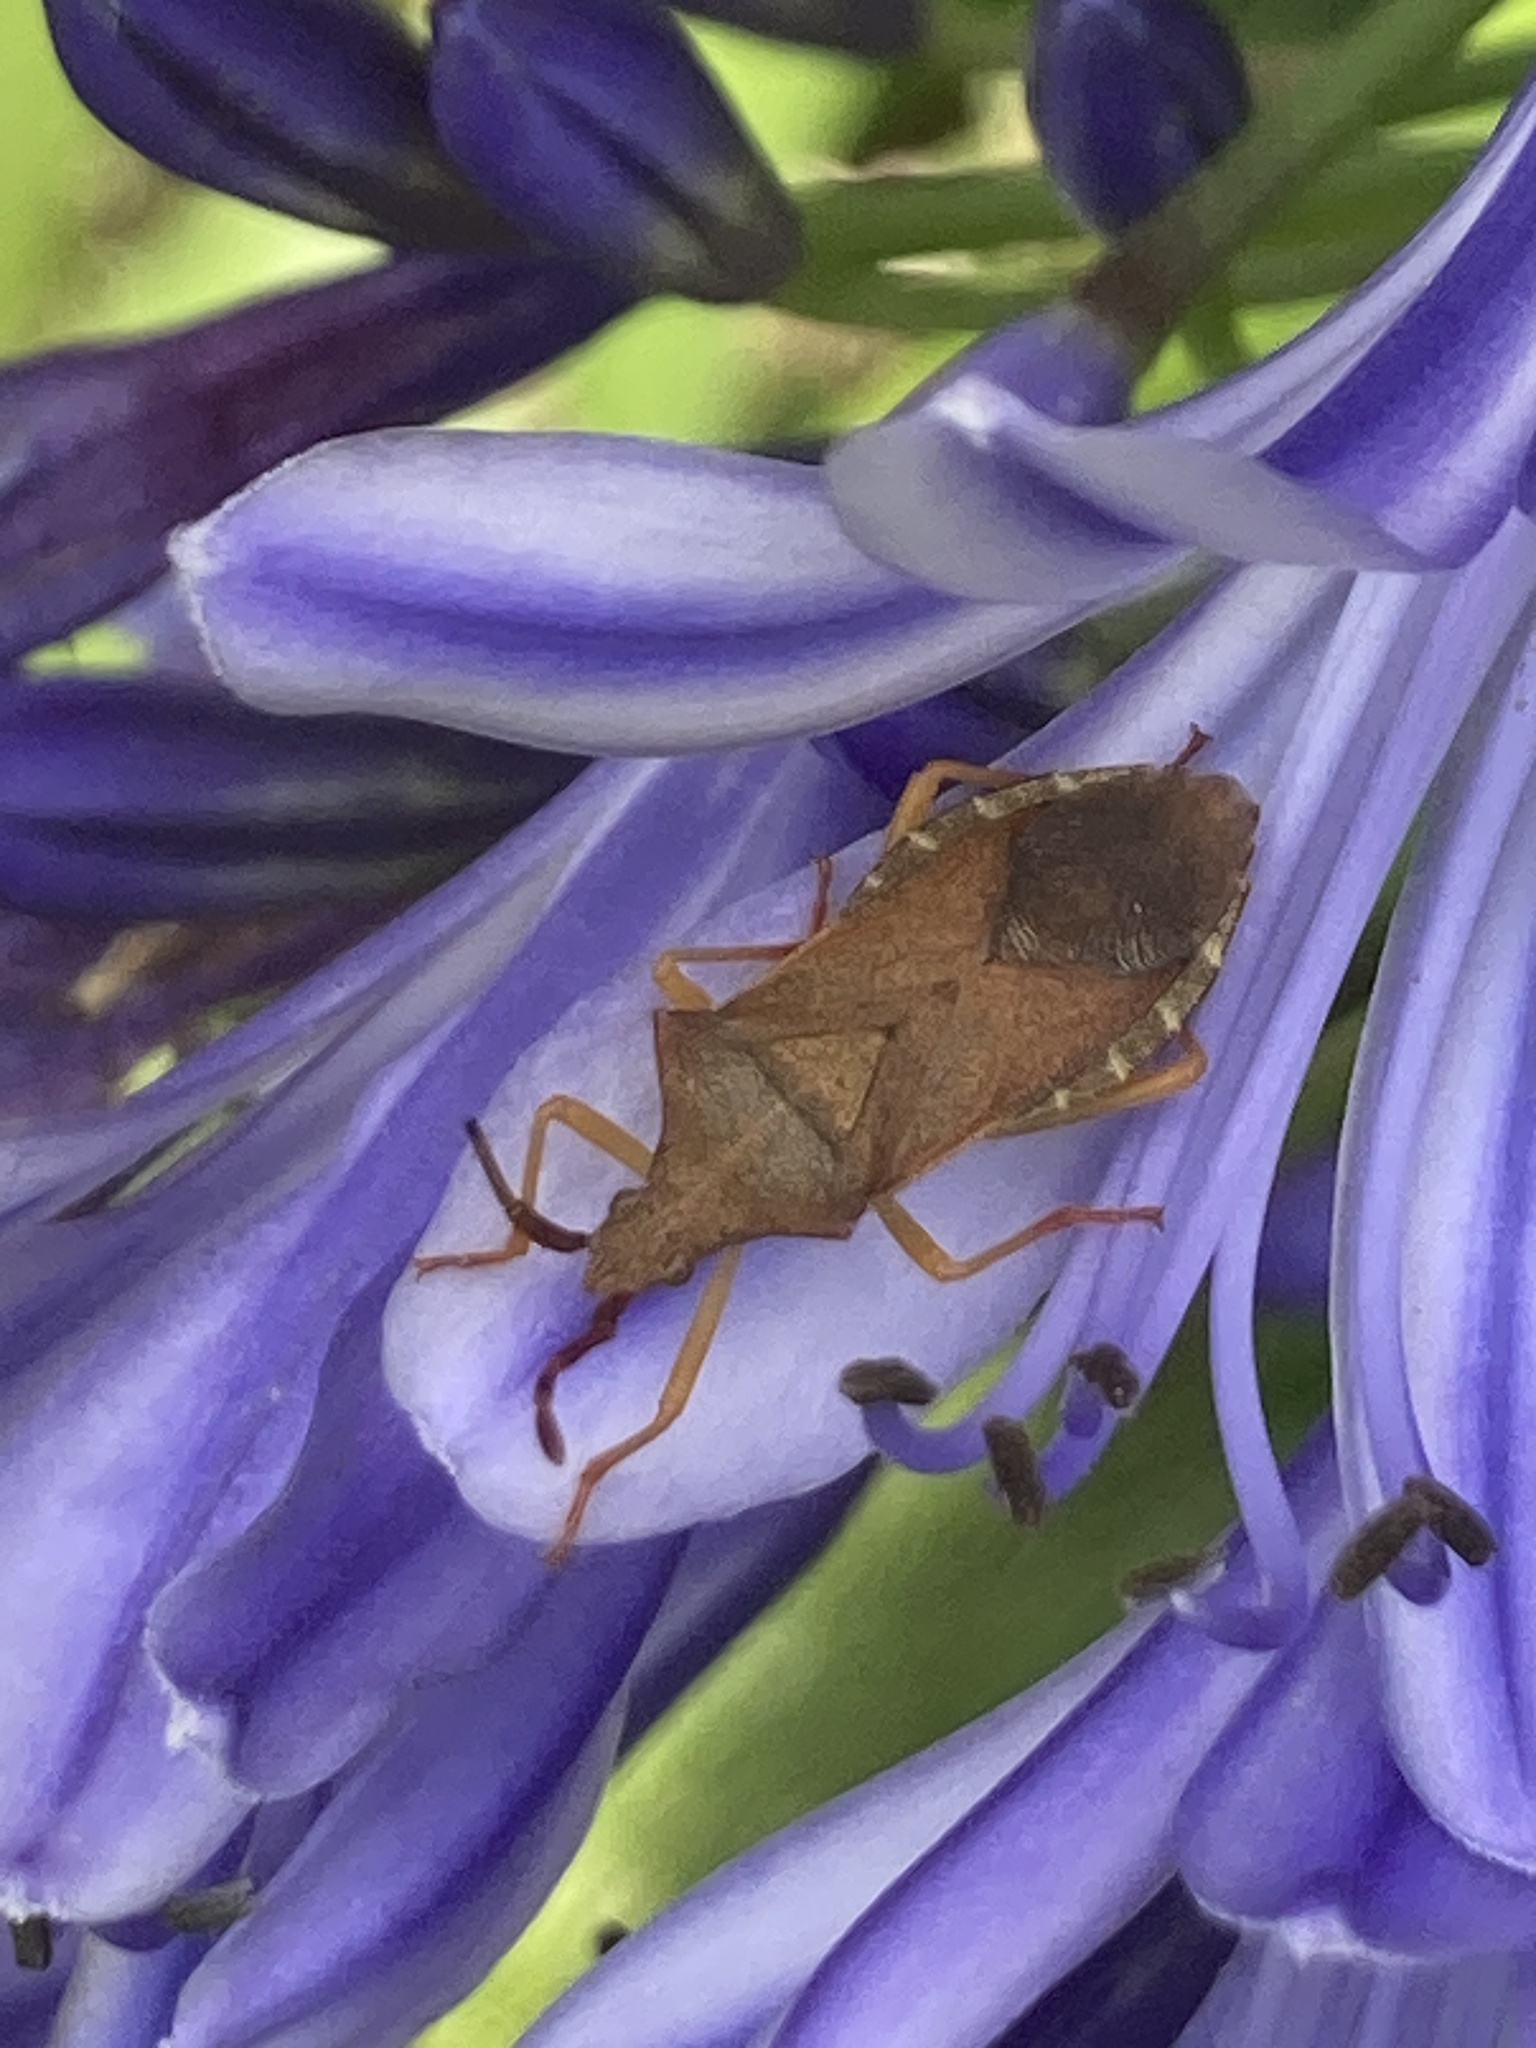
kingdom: Animalia
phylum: Arthropoda
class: Insecta
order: Hemiptera
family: Coreidae
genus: Gonocerus
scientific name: Gonocerus acuteangulatus
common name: Box bug
